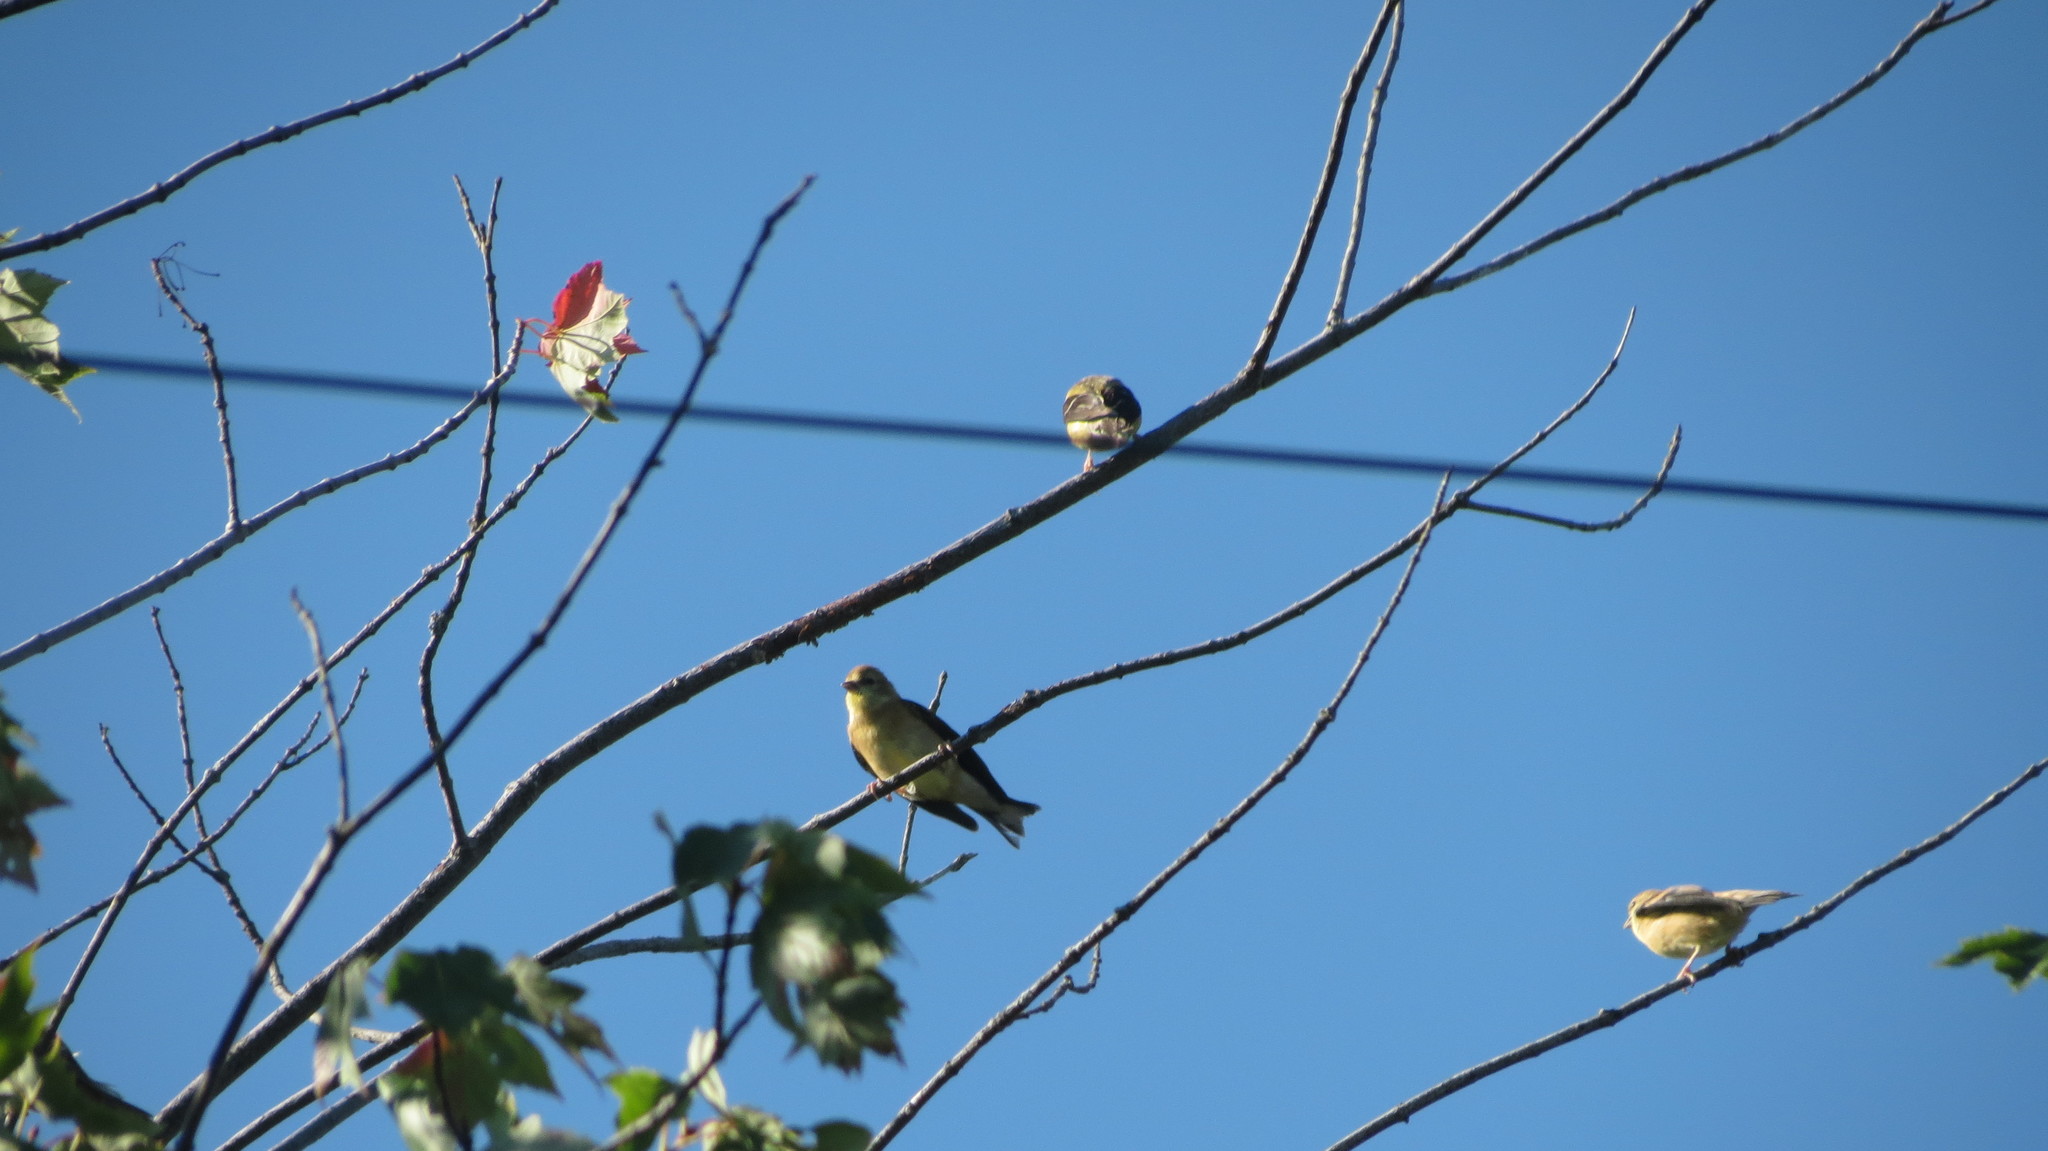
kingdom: Animalia
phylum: Chordata
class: Aves
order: Passeriformes
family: Fringillidae
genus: Spinus
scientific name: Spinus tristis
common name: American goldfinch
